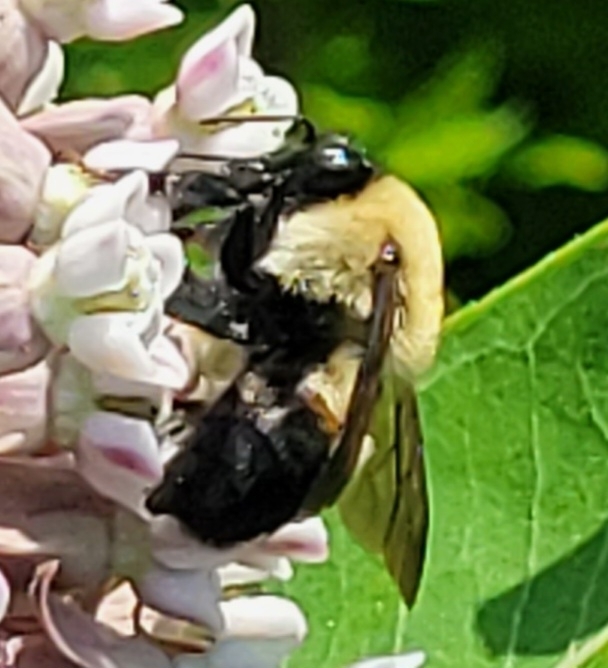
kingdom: Animalia
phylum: Arthropoda
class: Insecta
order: Hymenoptera
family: Apidae
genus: Bombus
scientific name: Bombus griseocollis
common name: Brown-belted bumble bee
